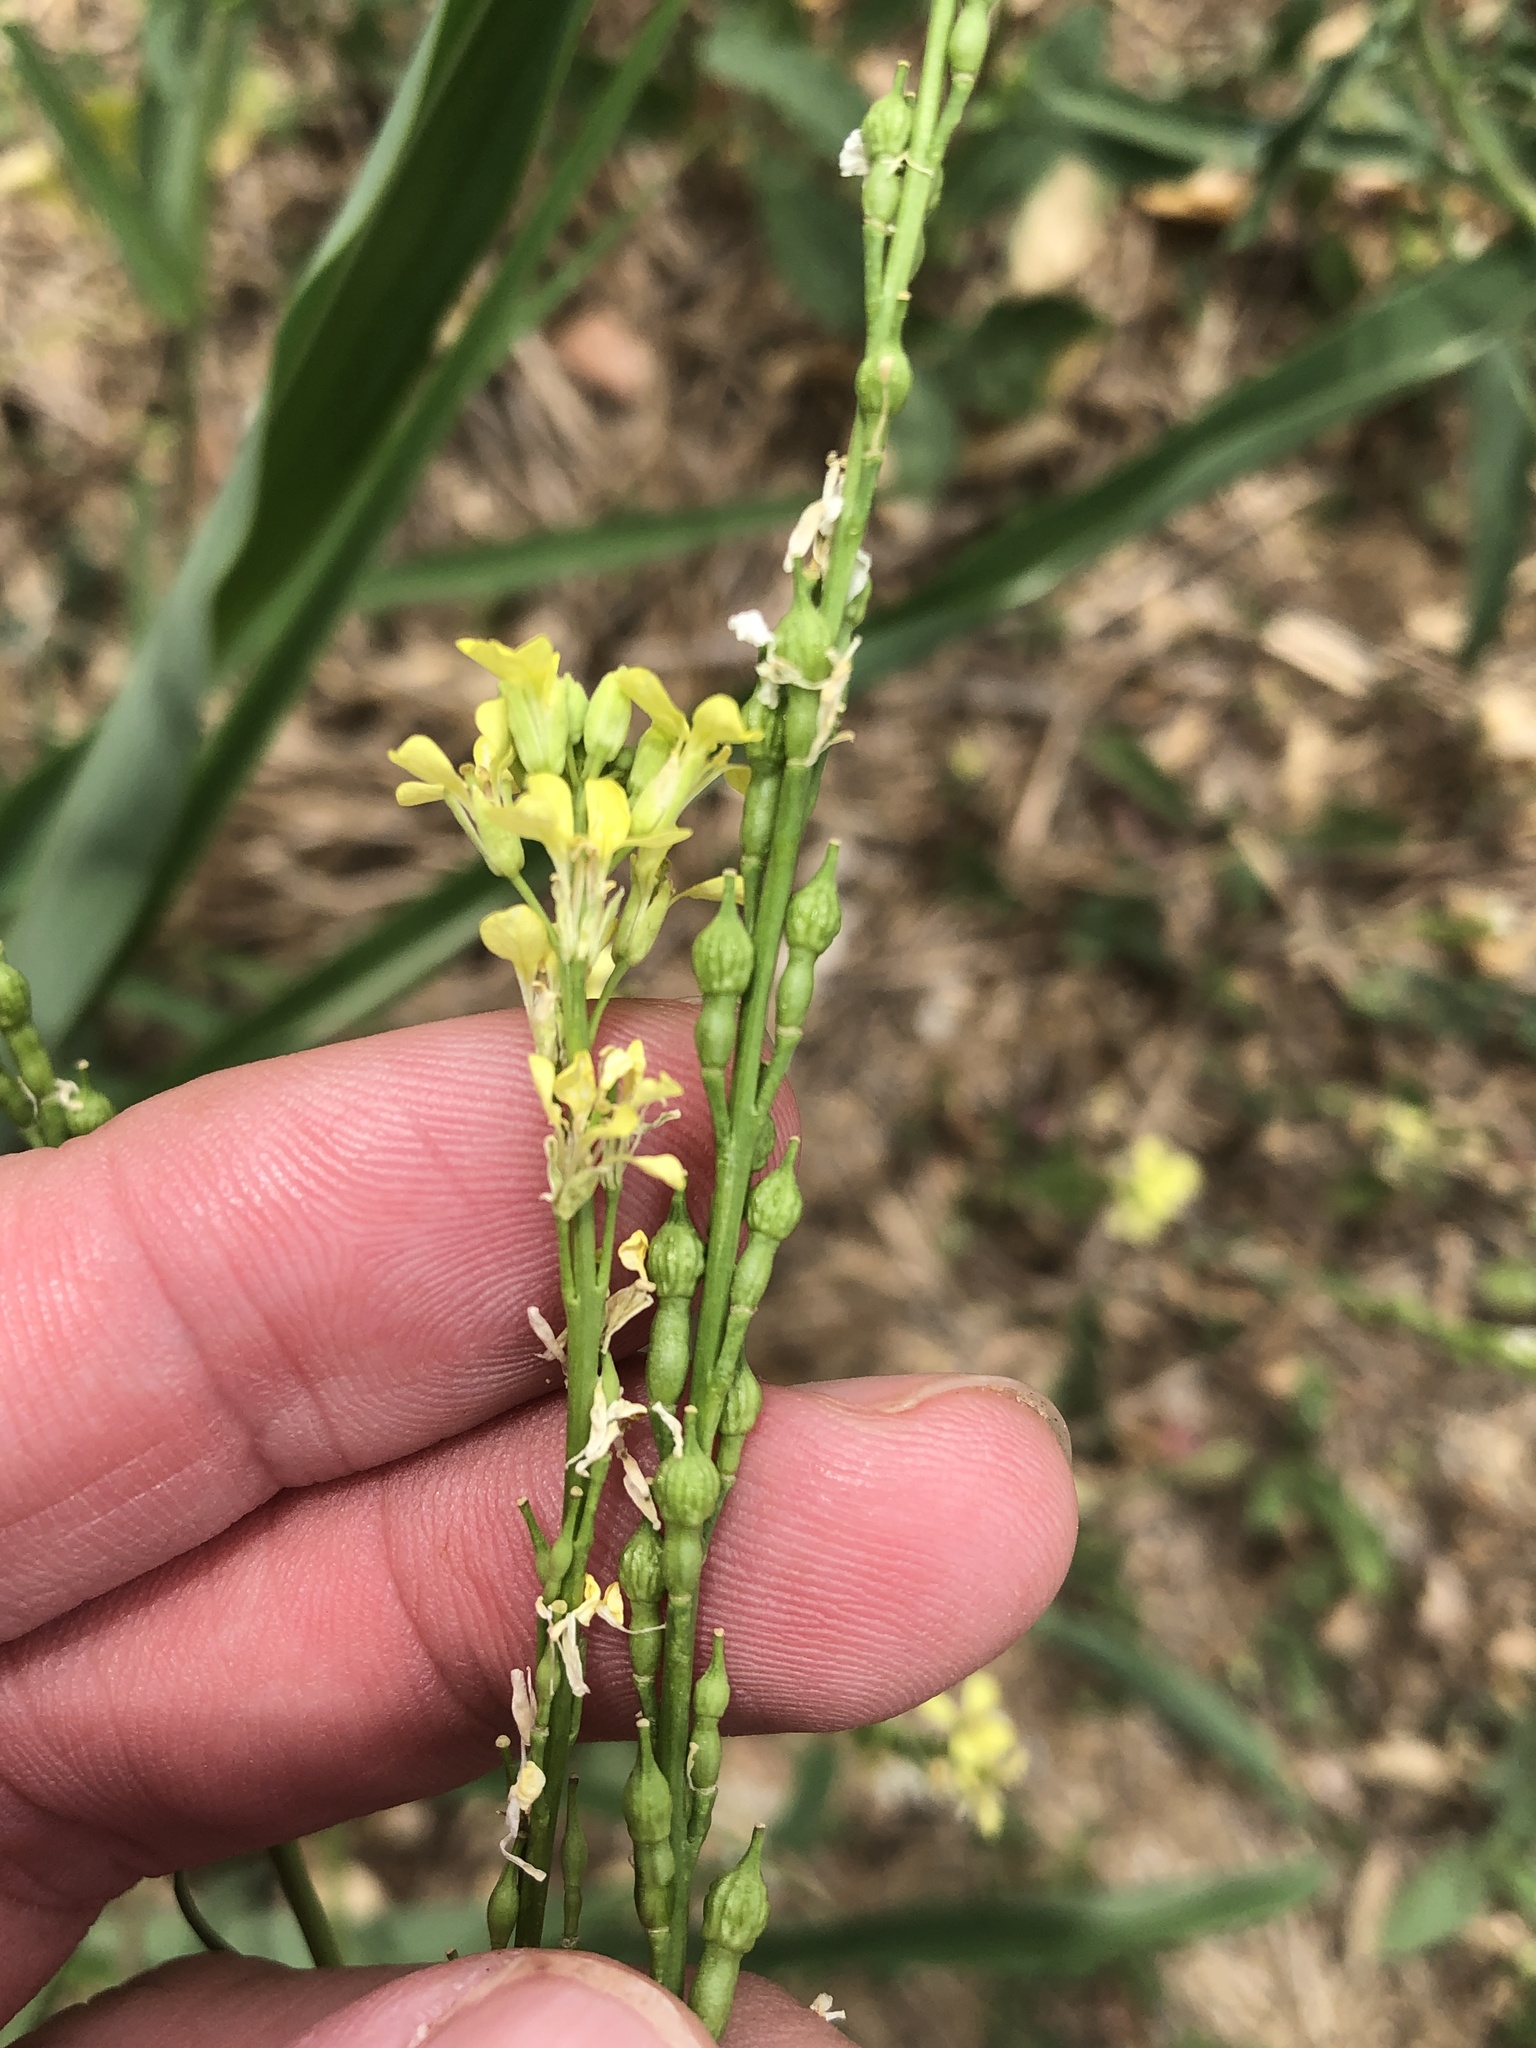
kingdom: Plantae
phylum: Tracheophyta
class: Magnoliopsida
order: Brassicales
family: Brassicaceae
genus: Rapistrum
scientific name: Rapistrum rugosum
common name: Annual bastardcabbage
